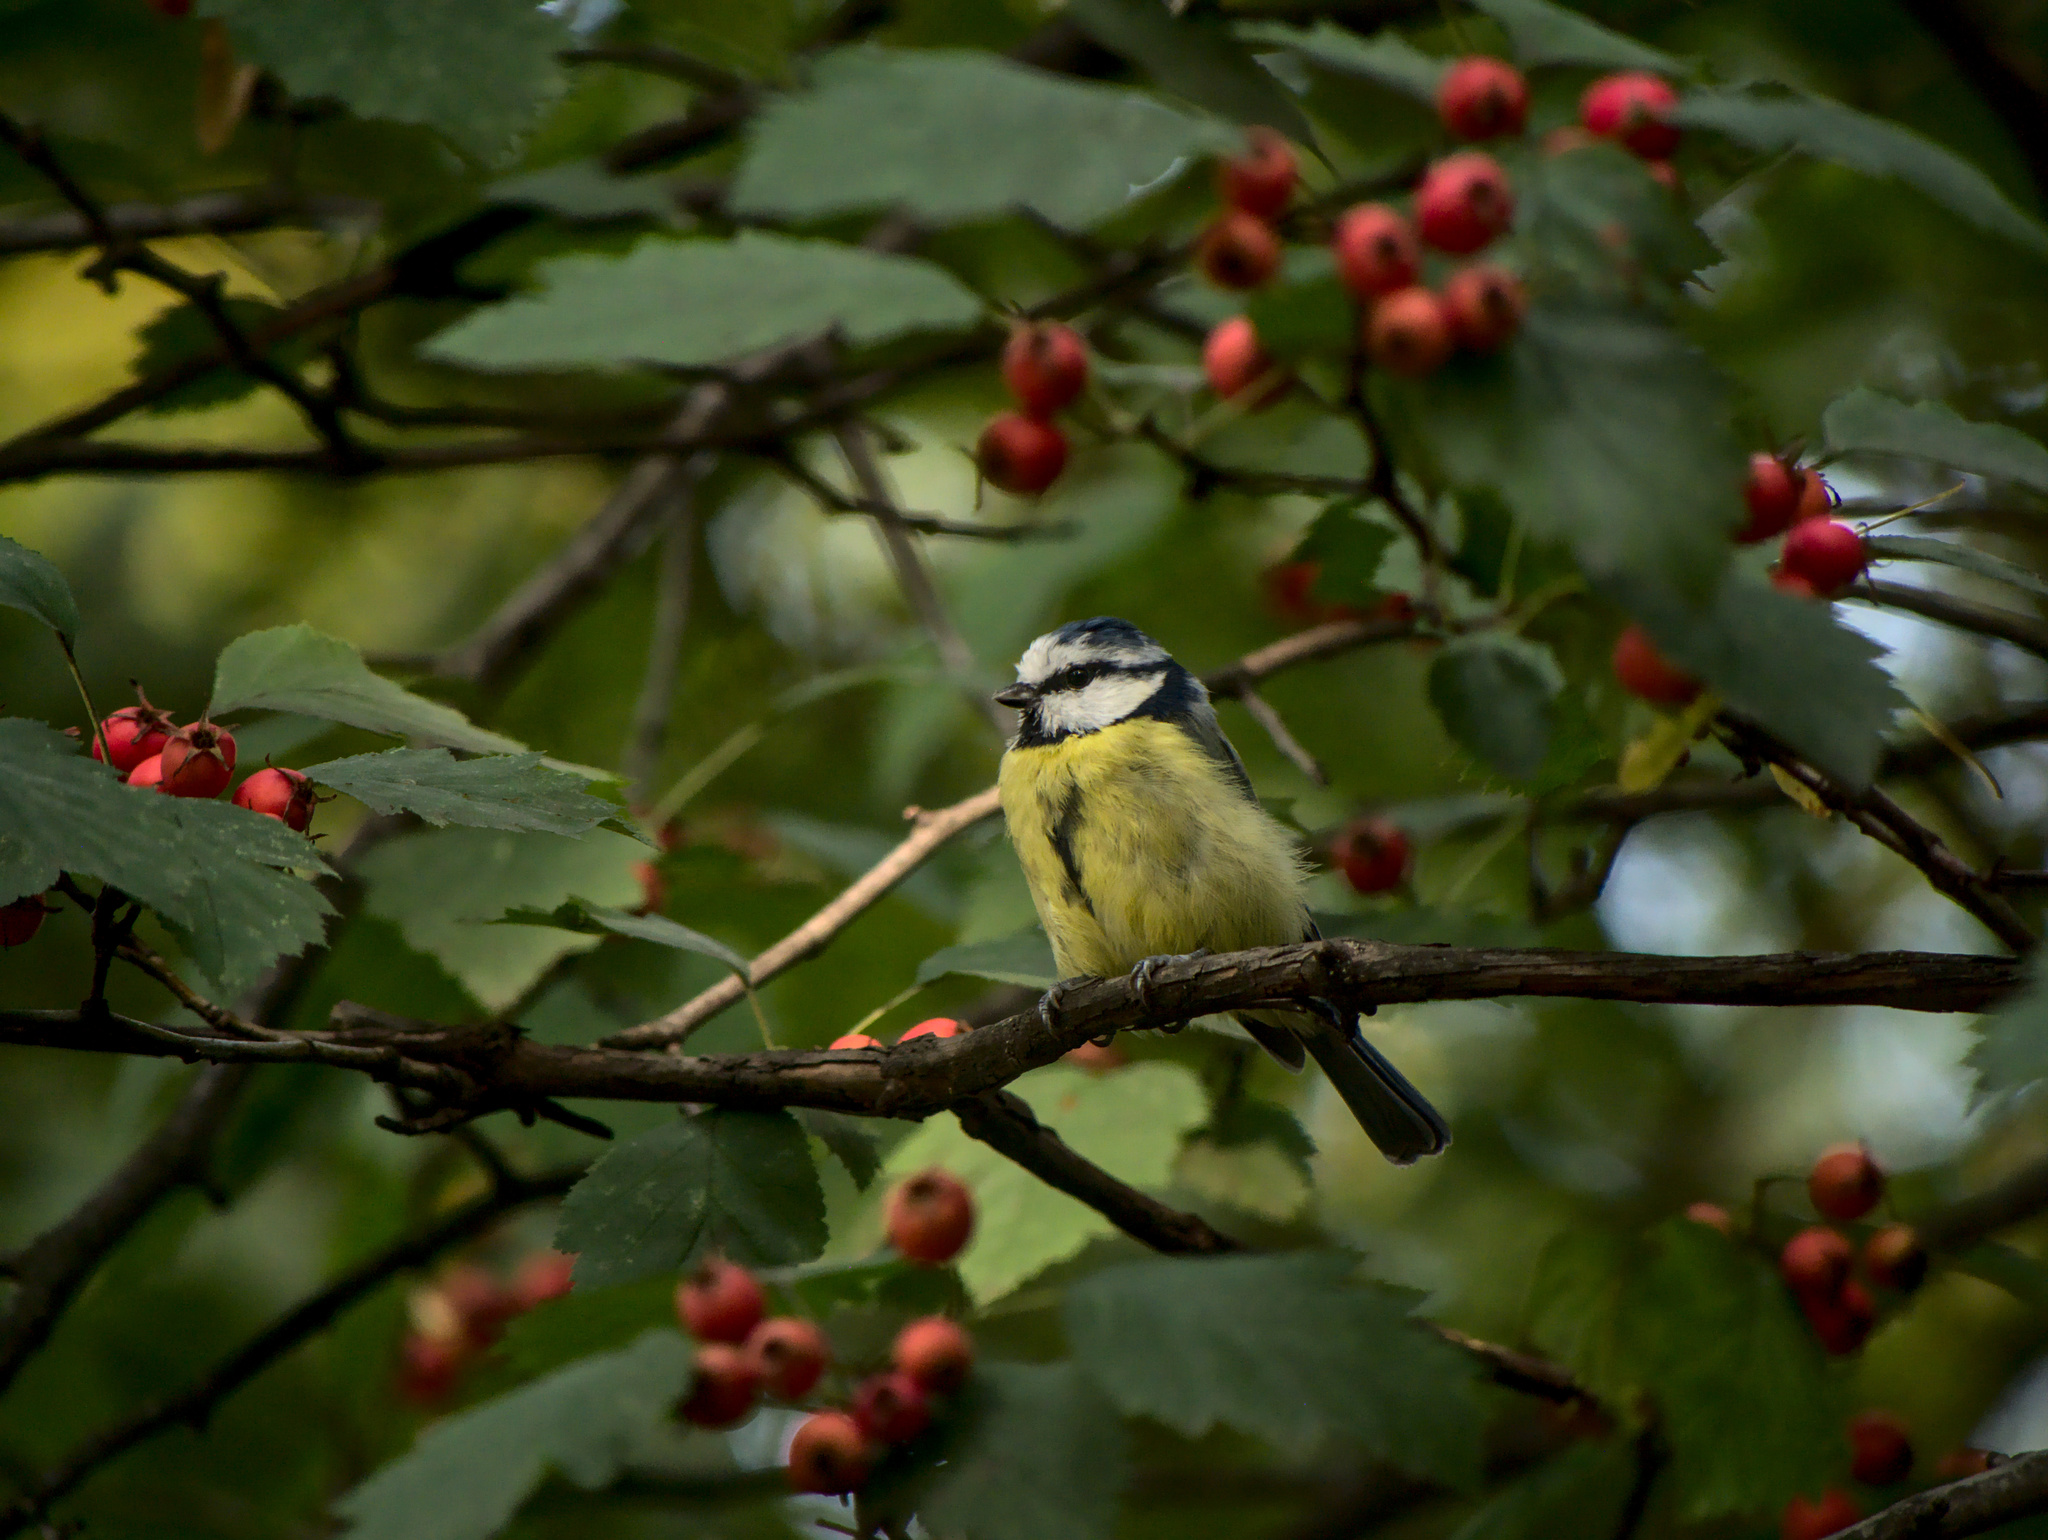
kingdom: Animalia
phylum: Chordata
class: Aves
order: Passeriformes
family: Paridae
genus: Cyanistes
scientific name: Cyanistes caeruleus
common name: Eurasian blue tit
